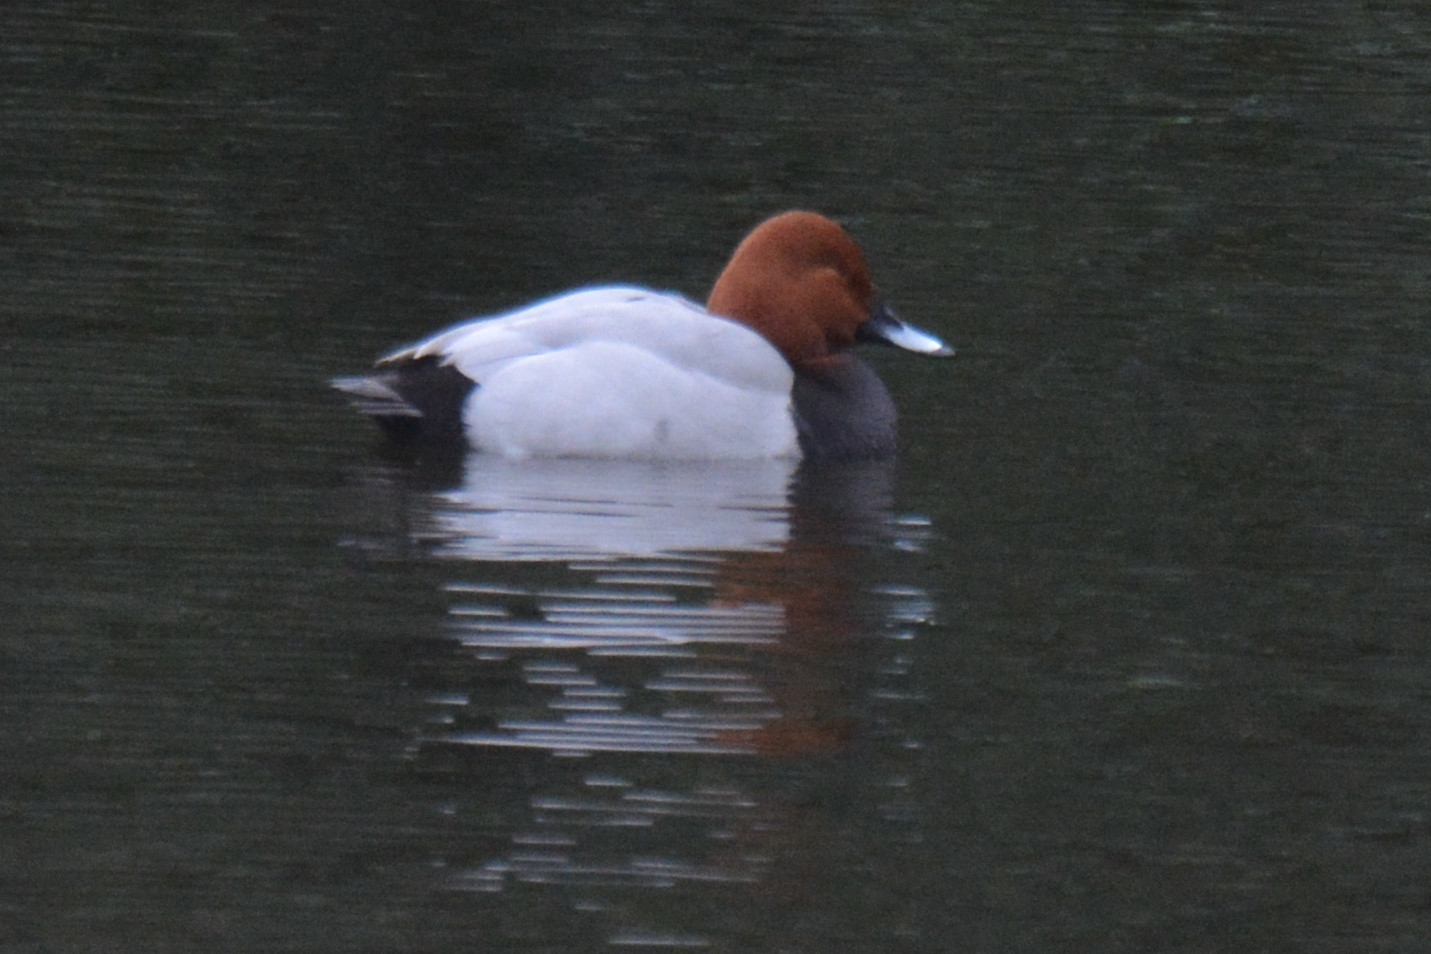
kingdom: Animalia
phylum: Chordata
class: Aves
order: Anseriformes
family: Anatidae
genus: Aythya
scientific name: Aythya ferina
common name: Common pochard
